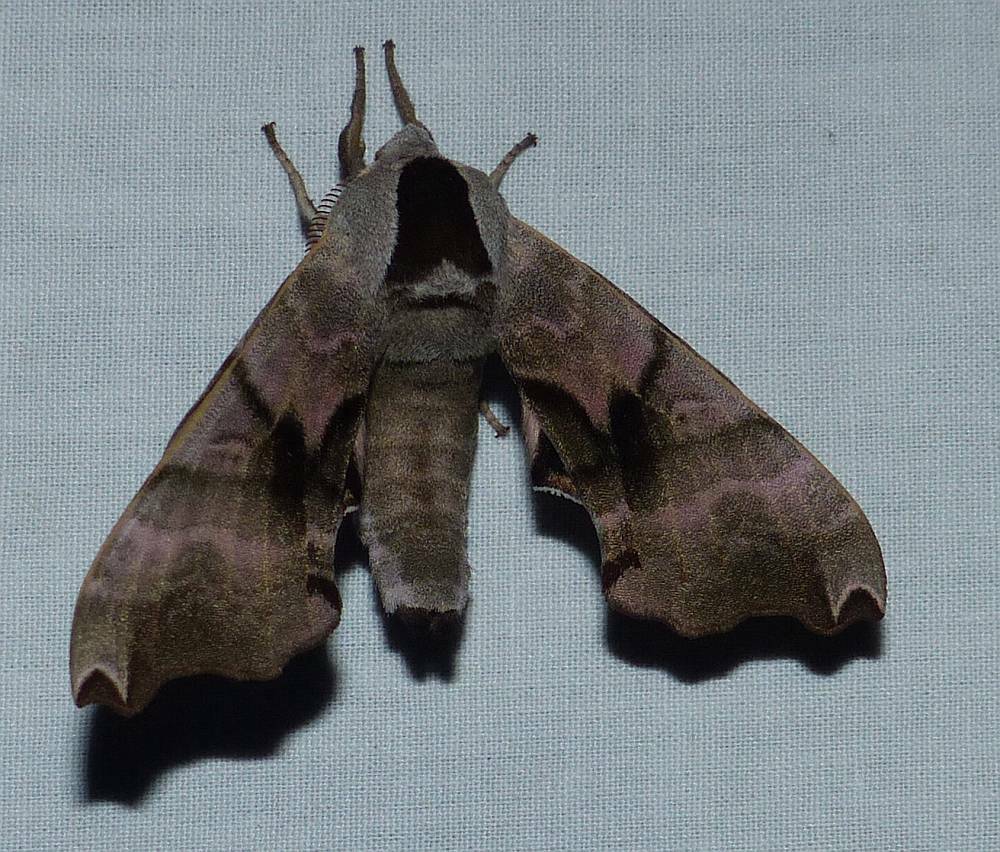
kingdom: Animalia
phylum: Arthropoda
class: Insecta
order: Lepidoptera
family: Sphingidae
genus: Smerinthus
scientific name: Smerinthus jamaicensis
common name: Twin spotted sphinx
